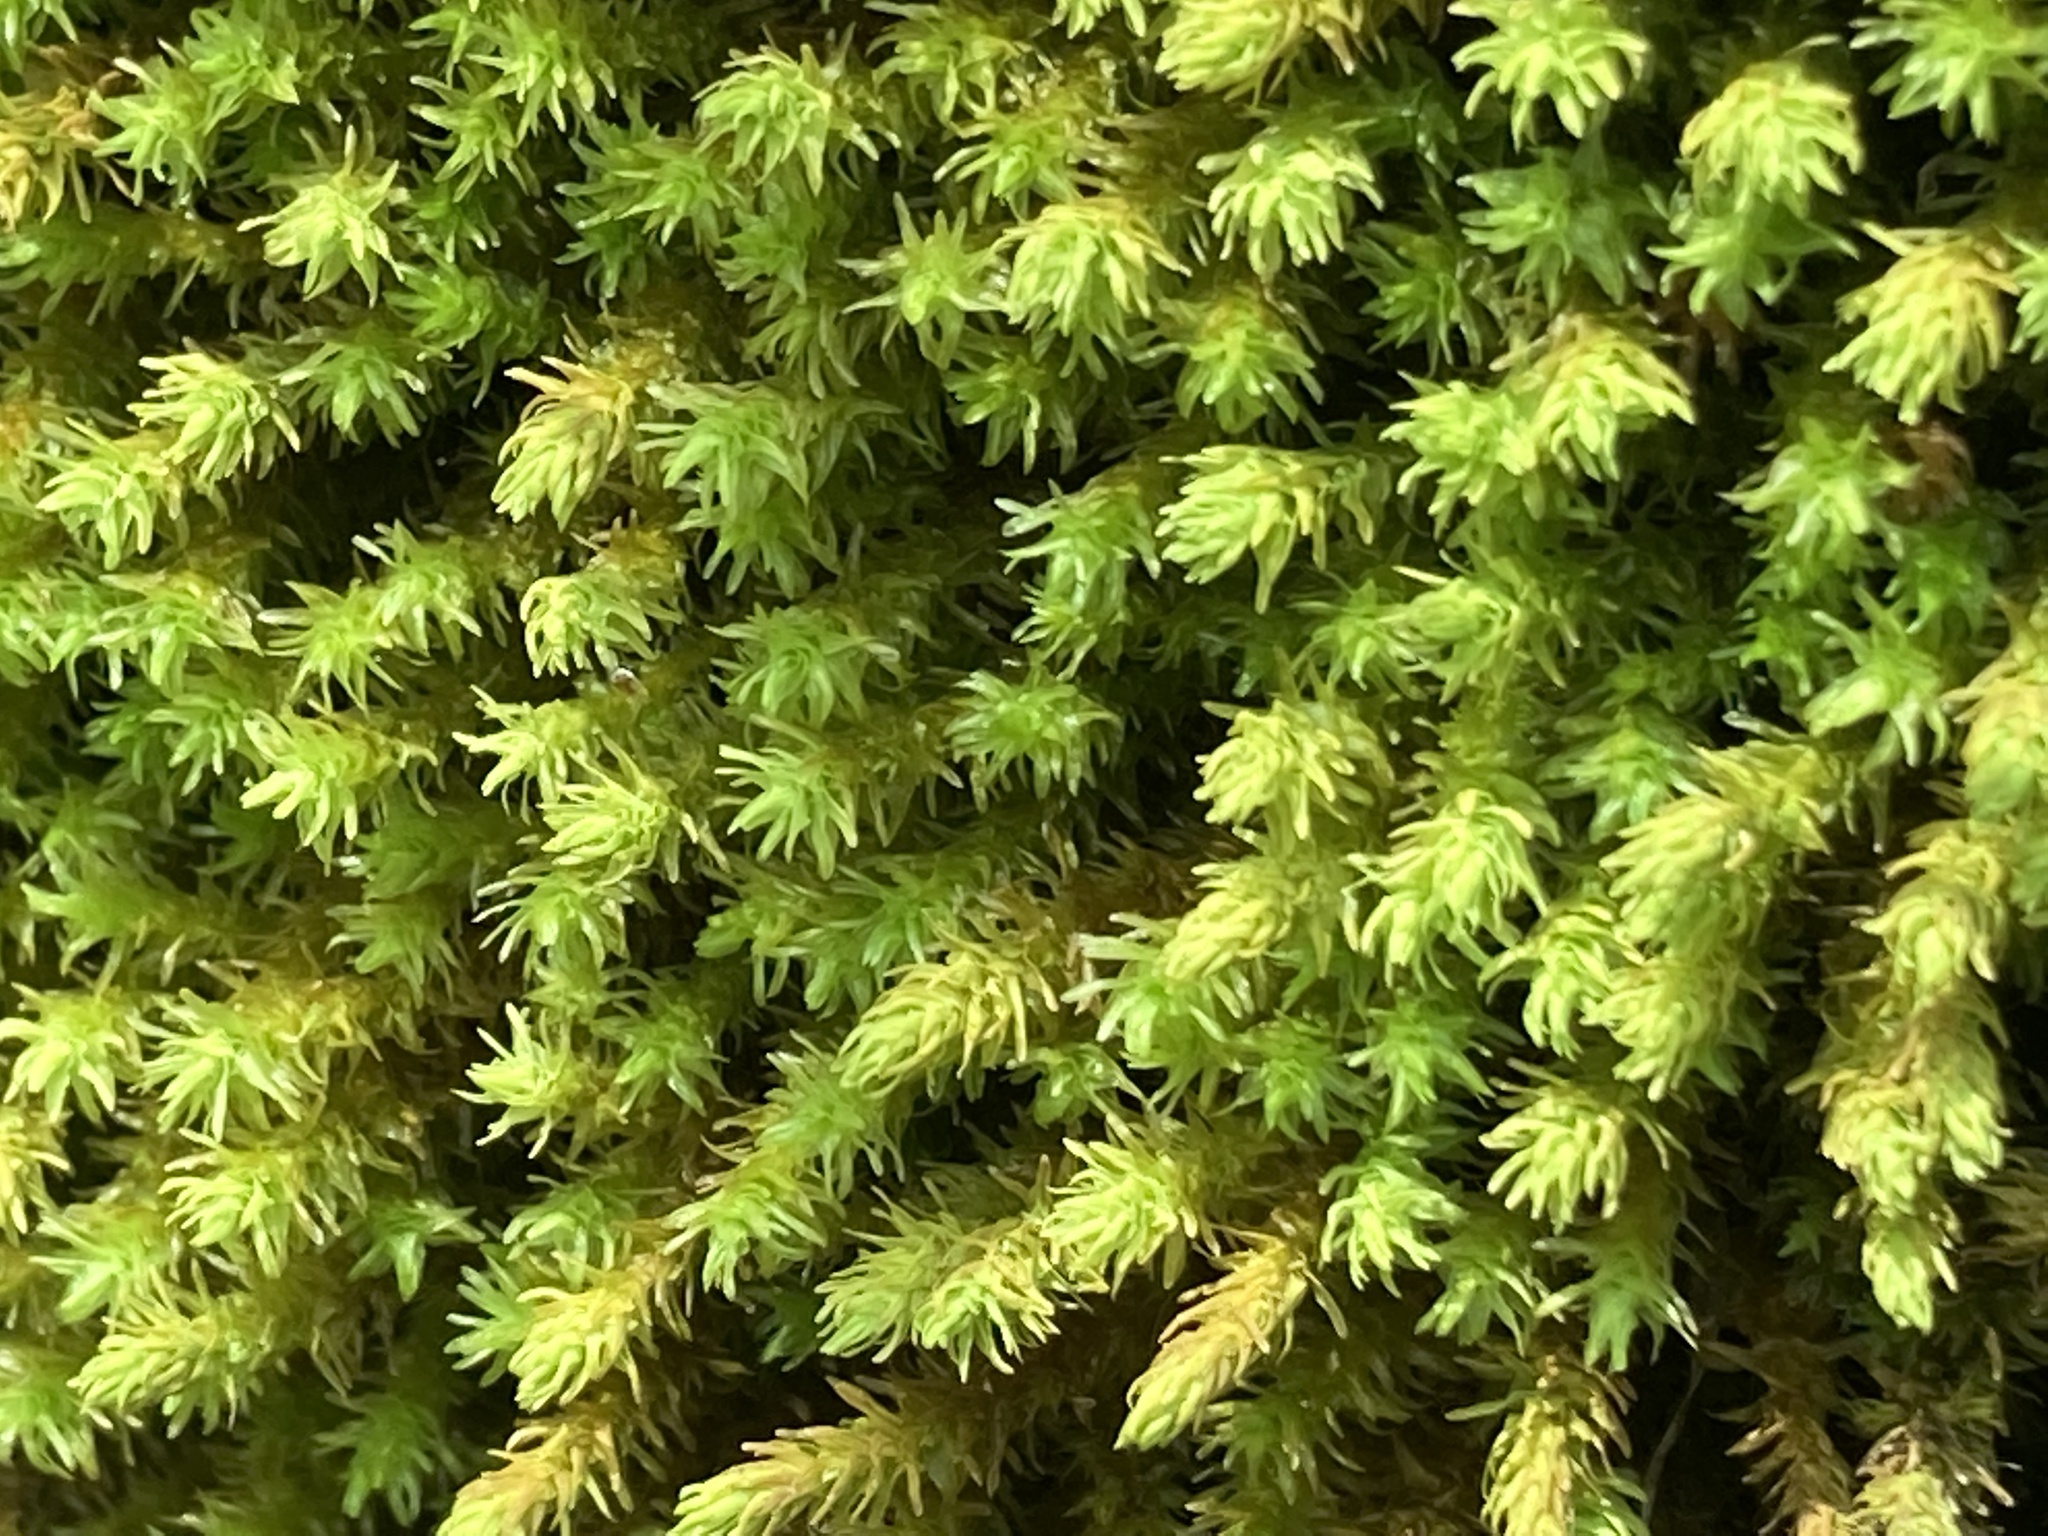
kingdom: Plantae
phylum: Bryophyta
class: Bryopsida
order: Hypnales
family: Anomodontaceae
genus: Anomodon
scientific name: Anomodon viticulosus
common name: Tall anomodon
